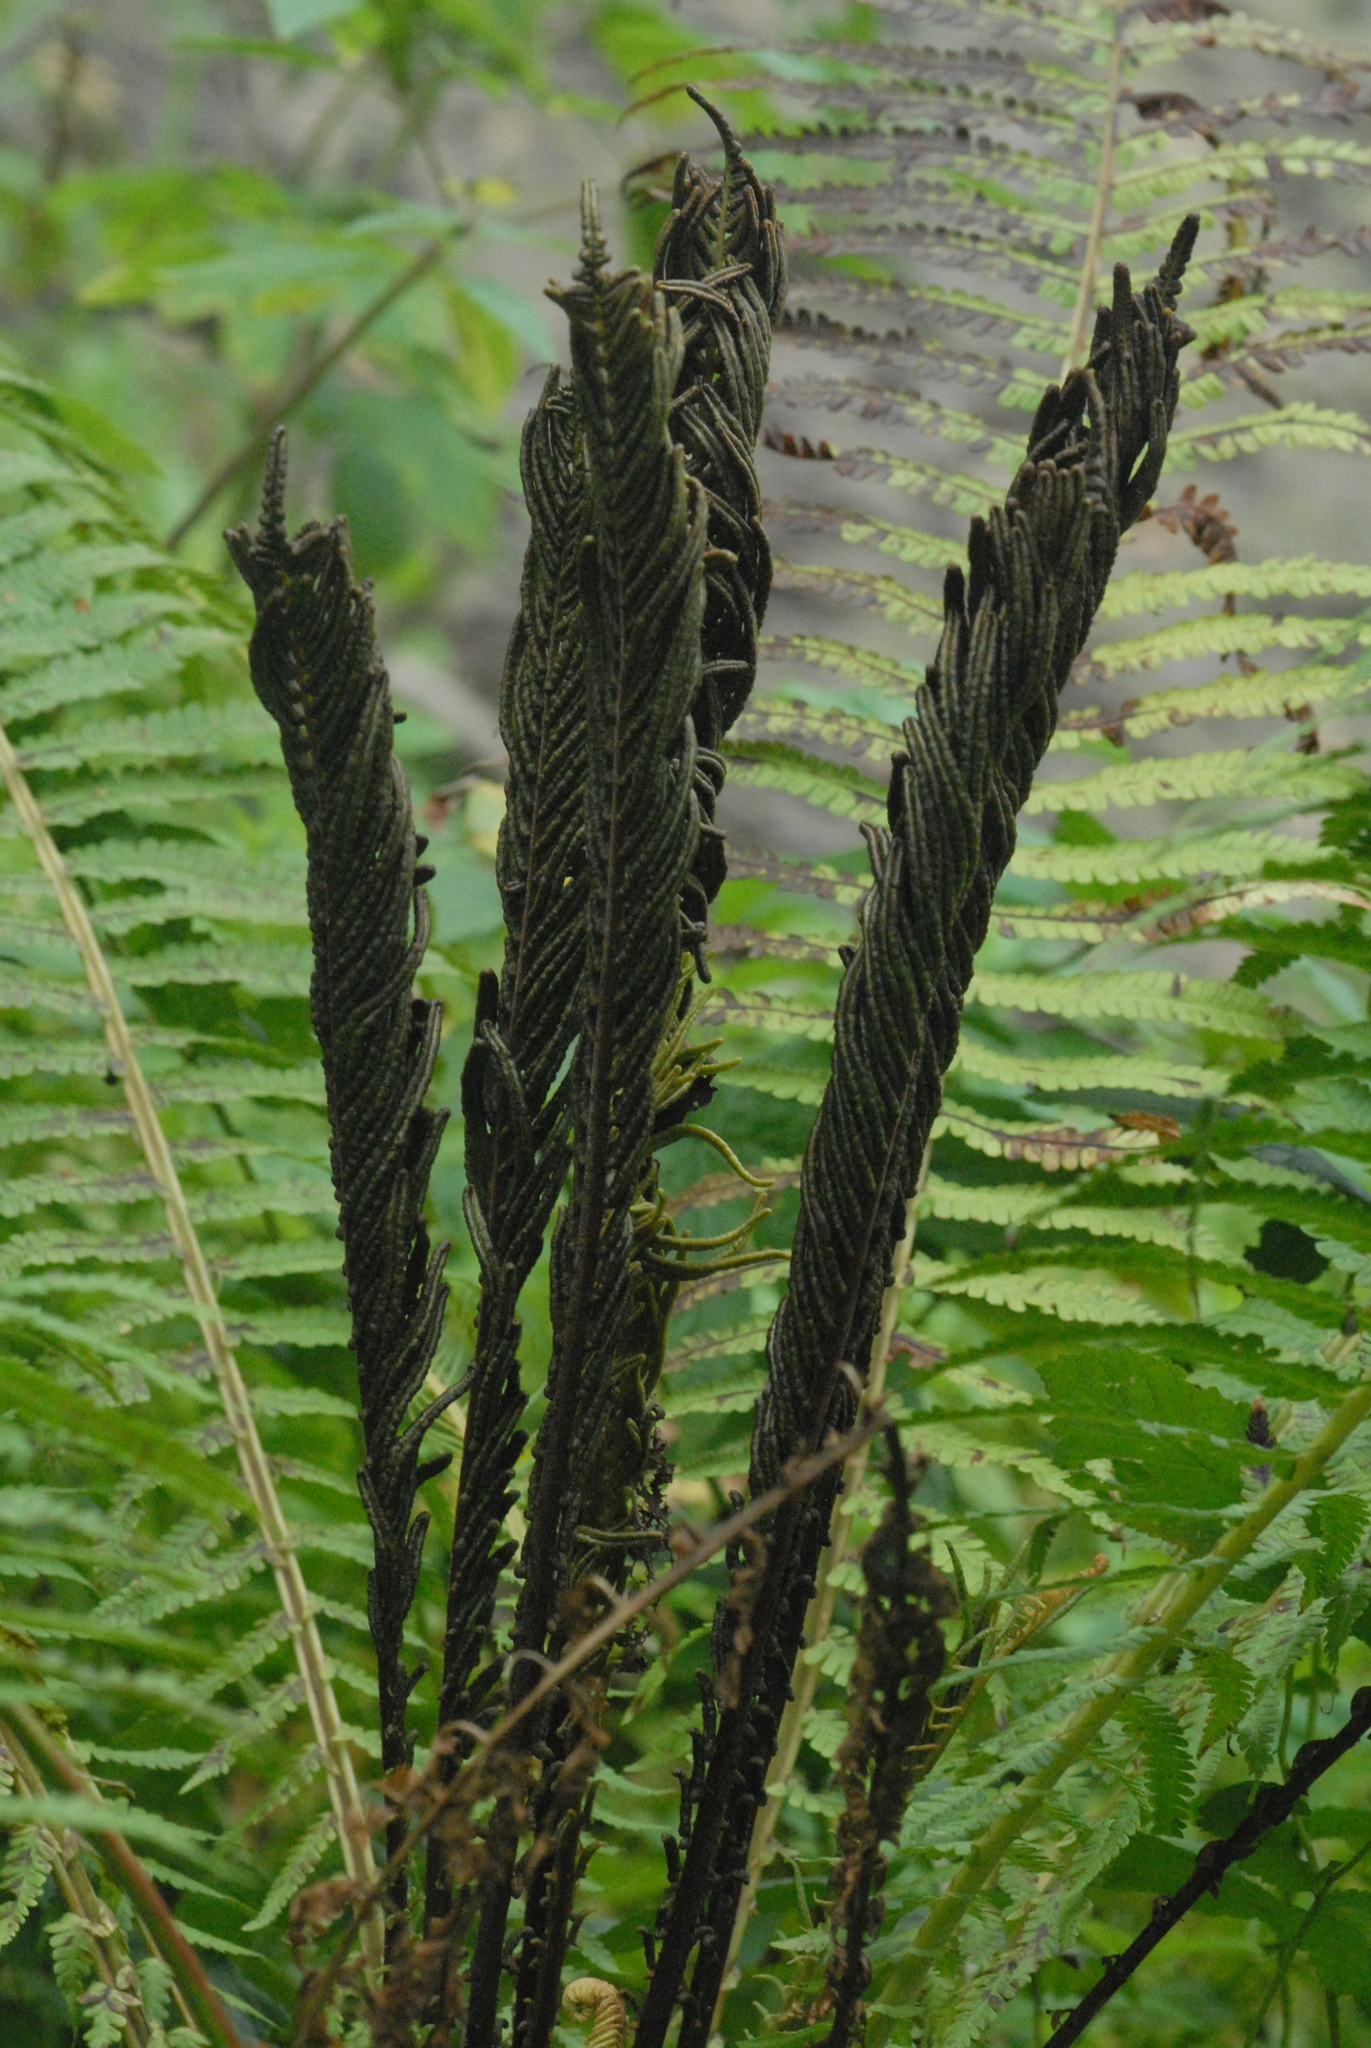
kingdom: Plantae
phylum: Tracheophyta
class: Polypodiopsida
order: Polypodiales
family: Onocleaceae
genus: Matteuccia
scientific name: Matteuccia struthiopteris
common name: Ostrich fern
